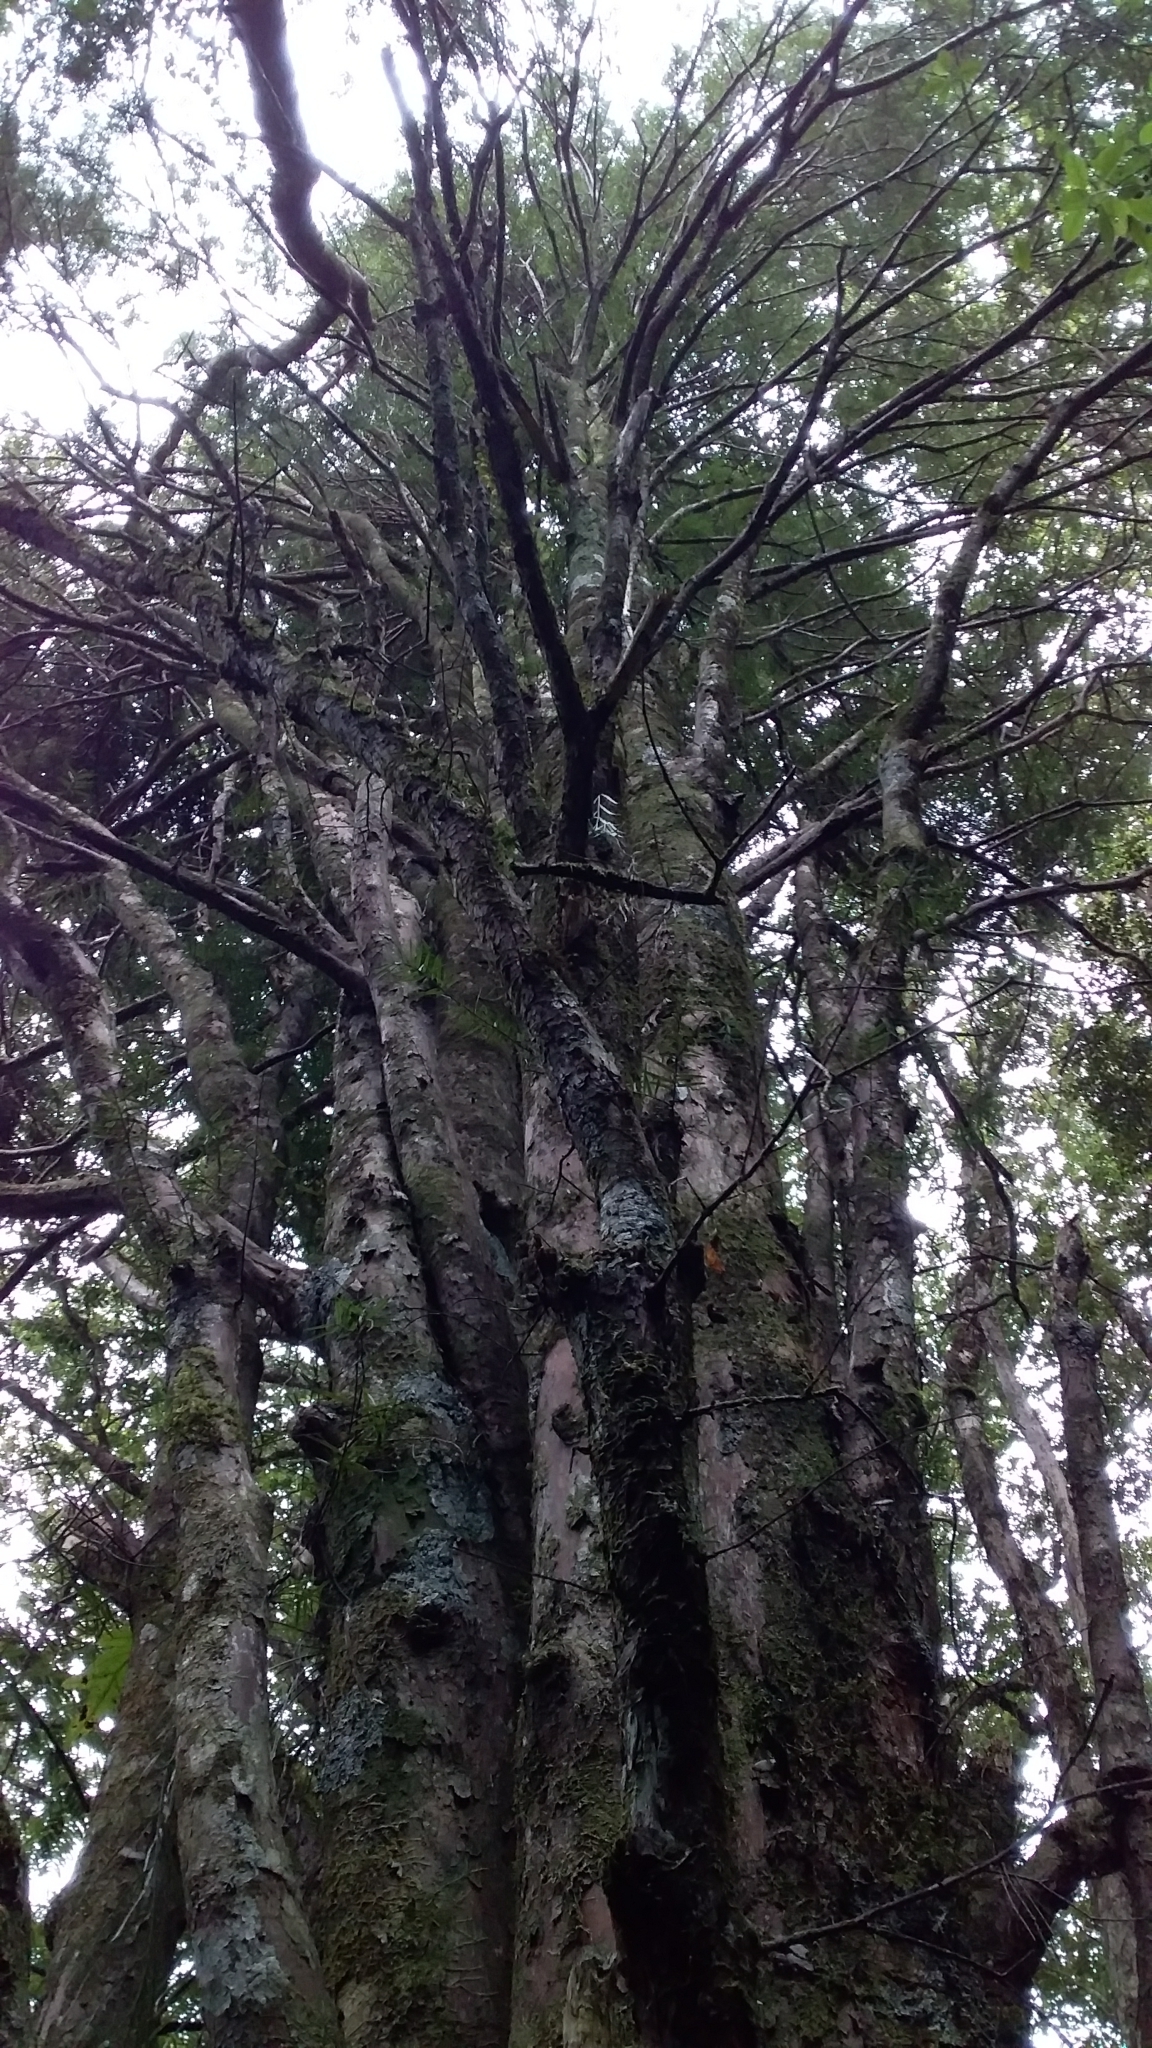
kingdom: Plantae
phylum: Tracheophyta
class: Pinopsida
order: Pinales
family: Podocarpaceae
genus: Podocarpus
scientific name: Podocarpus laetus
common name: Hall's totara
